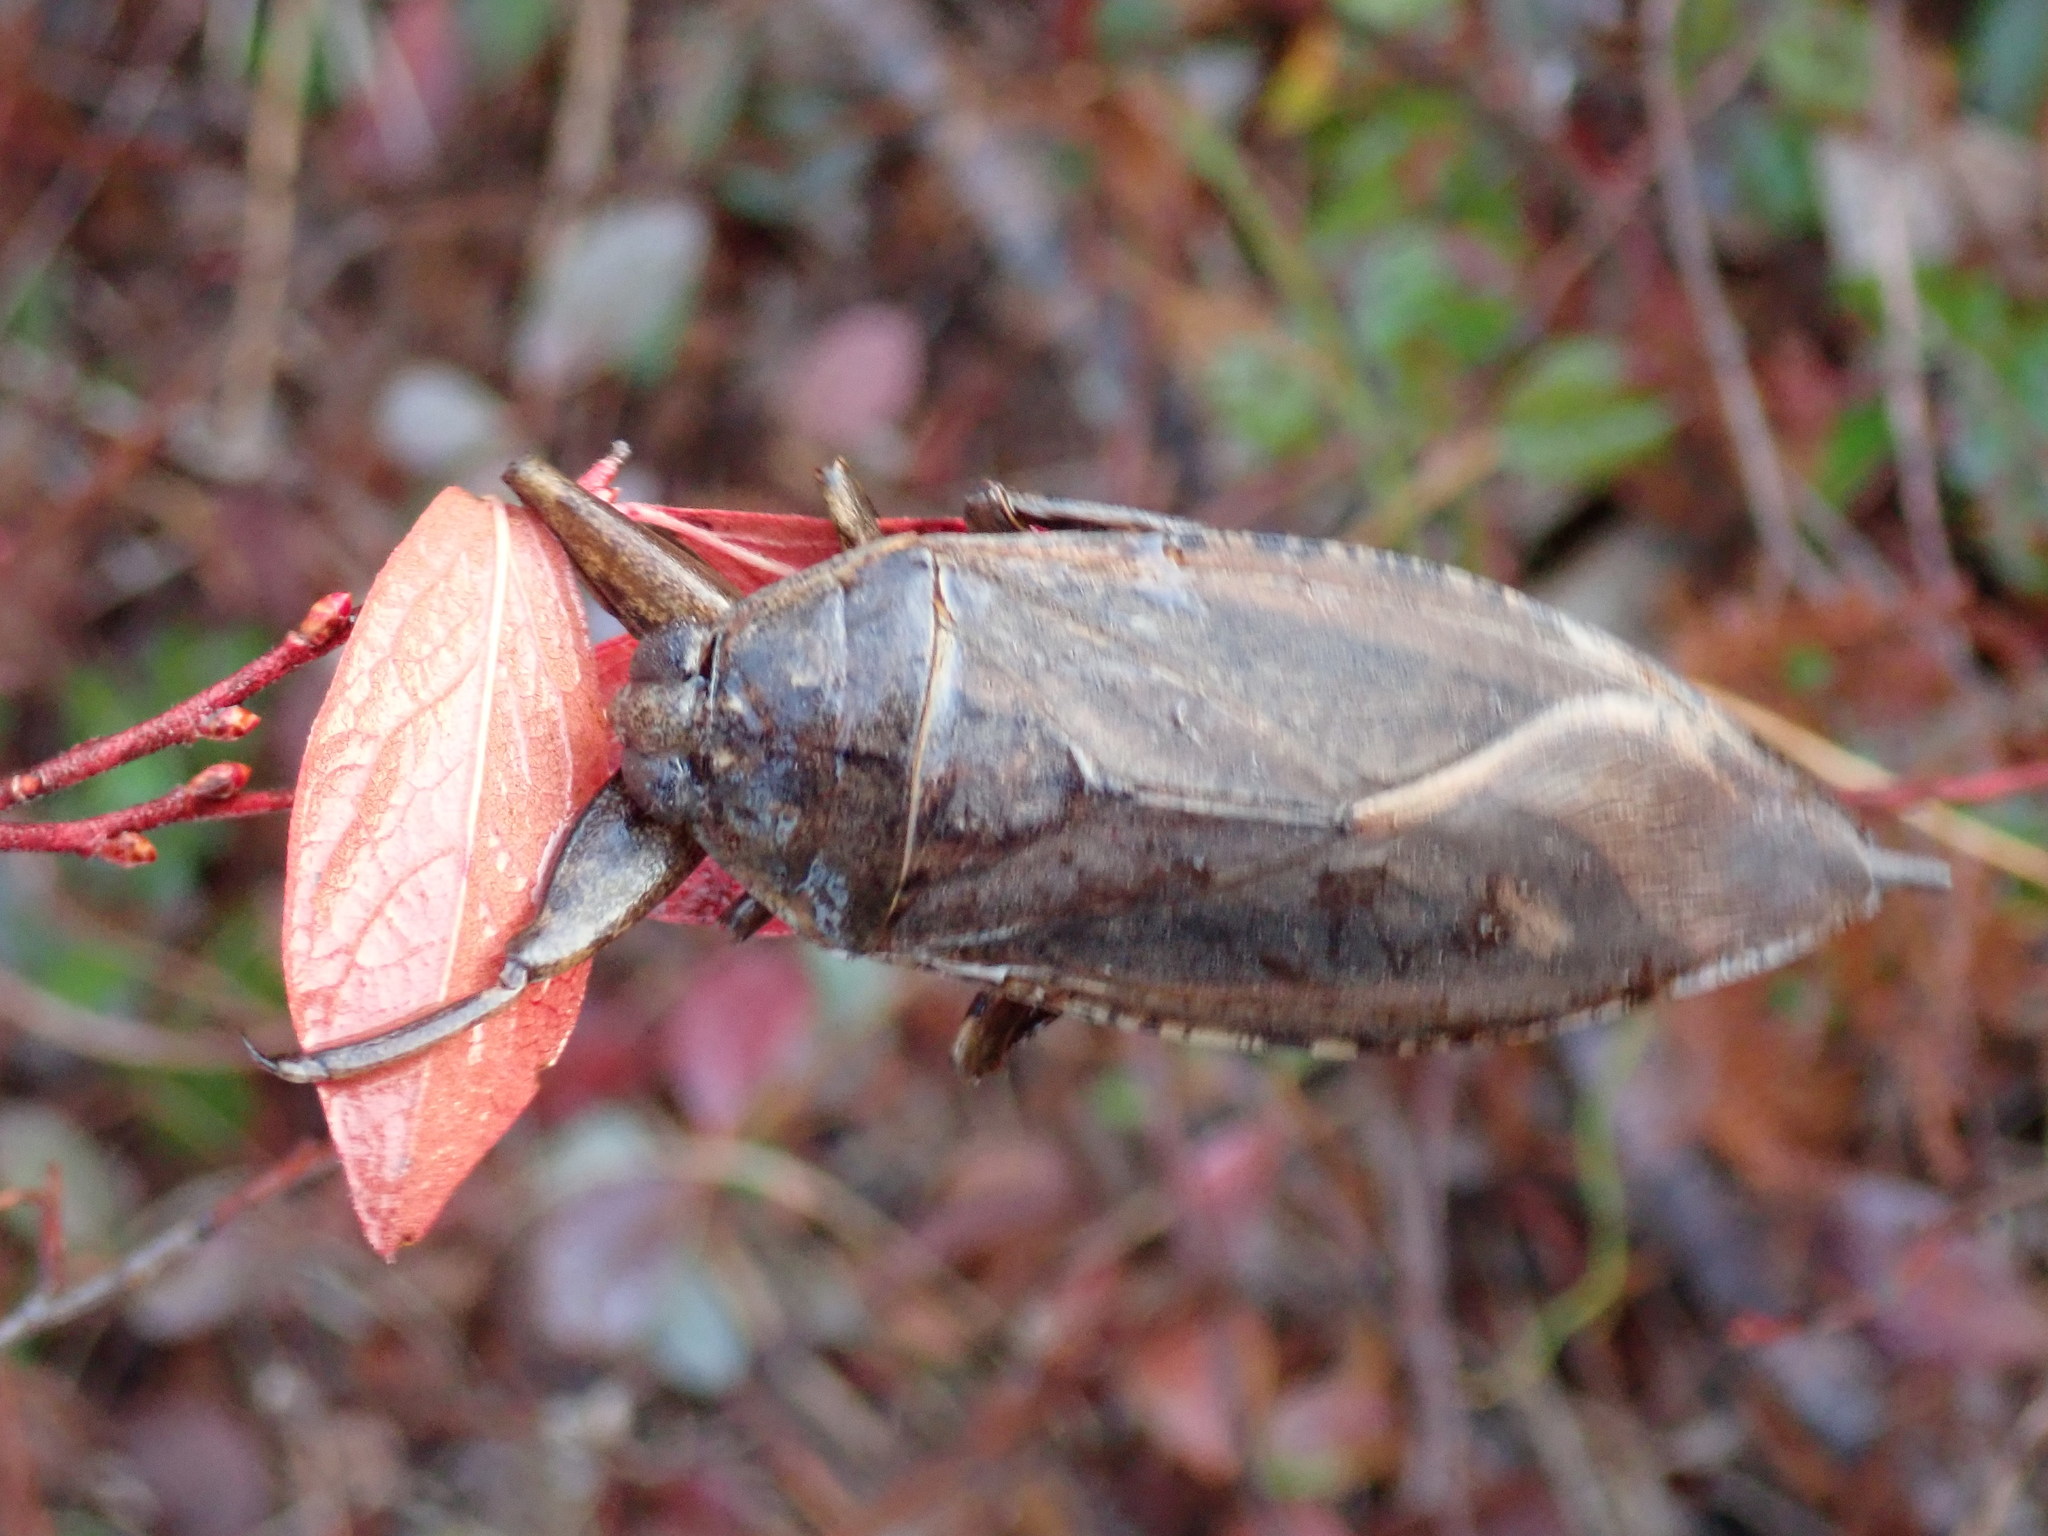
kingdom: Animalia
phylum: Arthropoda
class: Insecta
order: Hemiptera
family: Belostomatidae
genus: Lethocerus
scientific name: Lethocerus americanus
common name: Giant water bug
